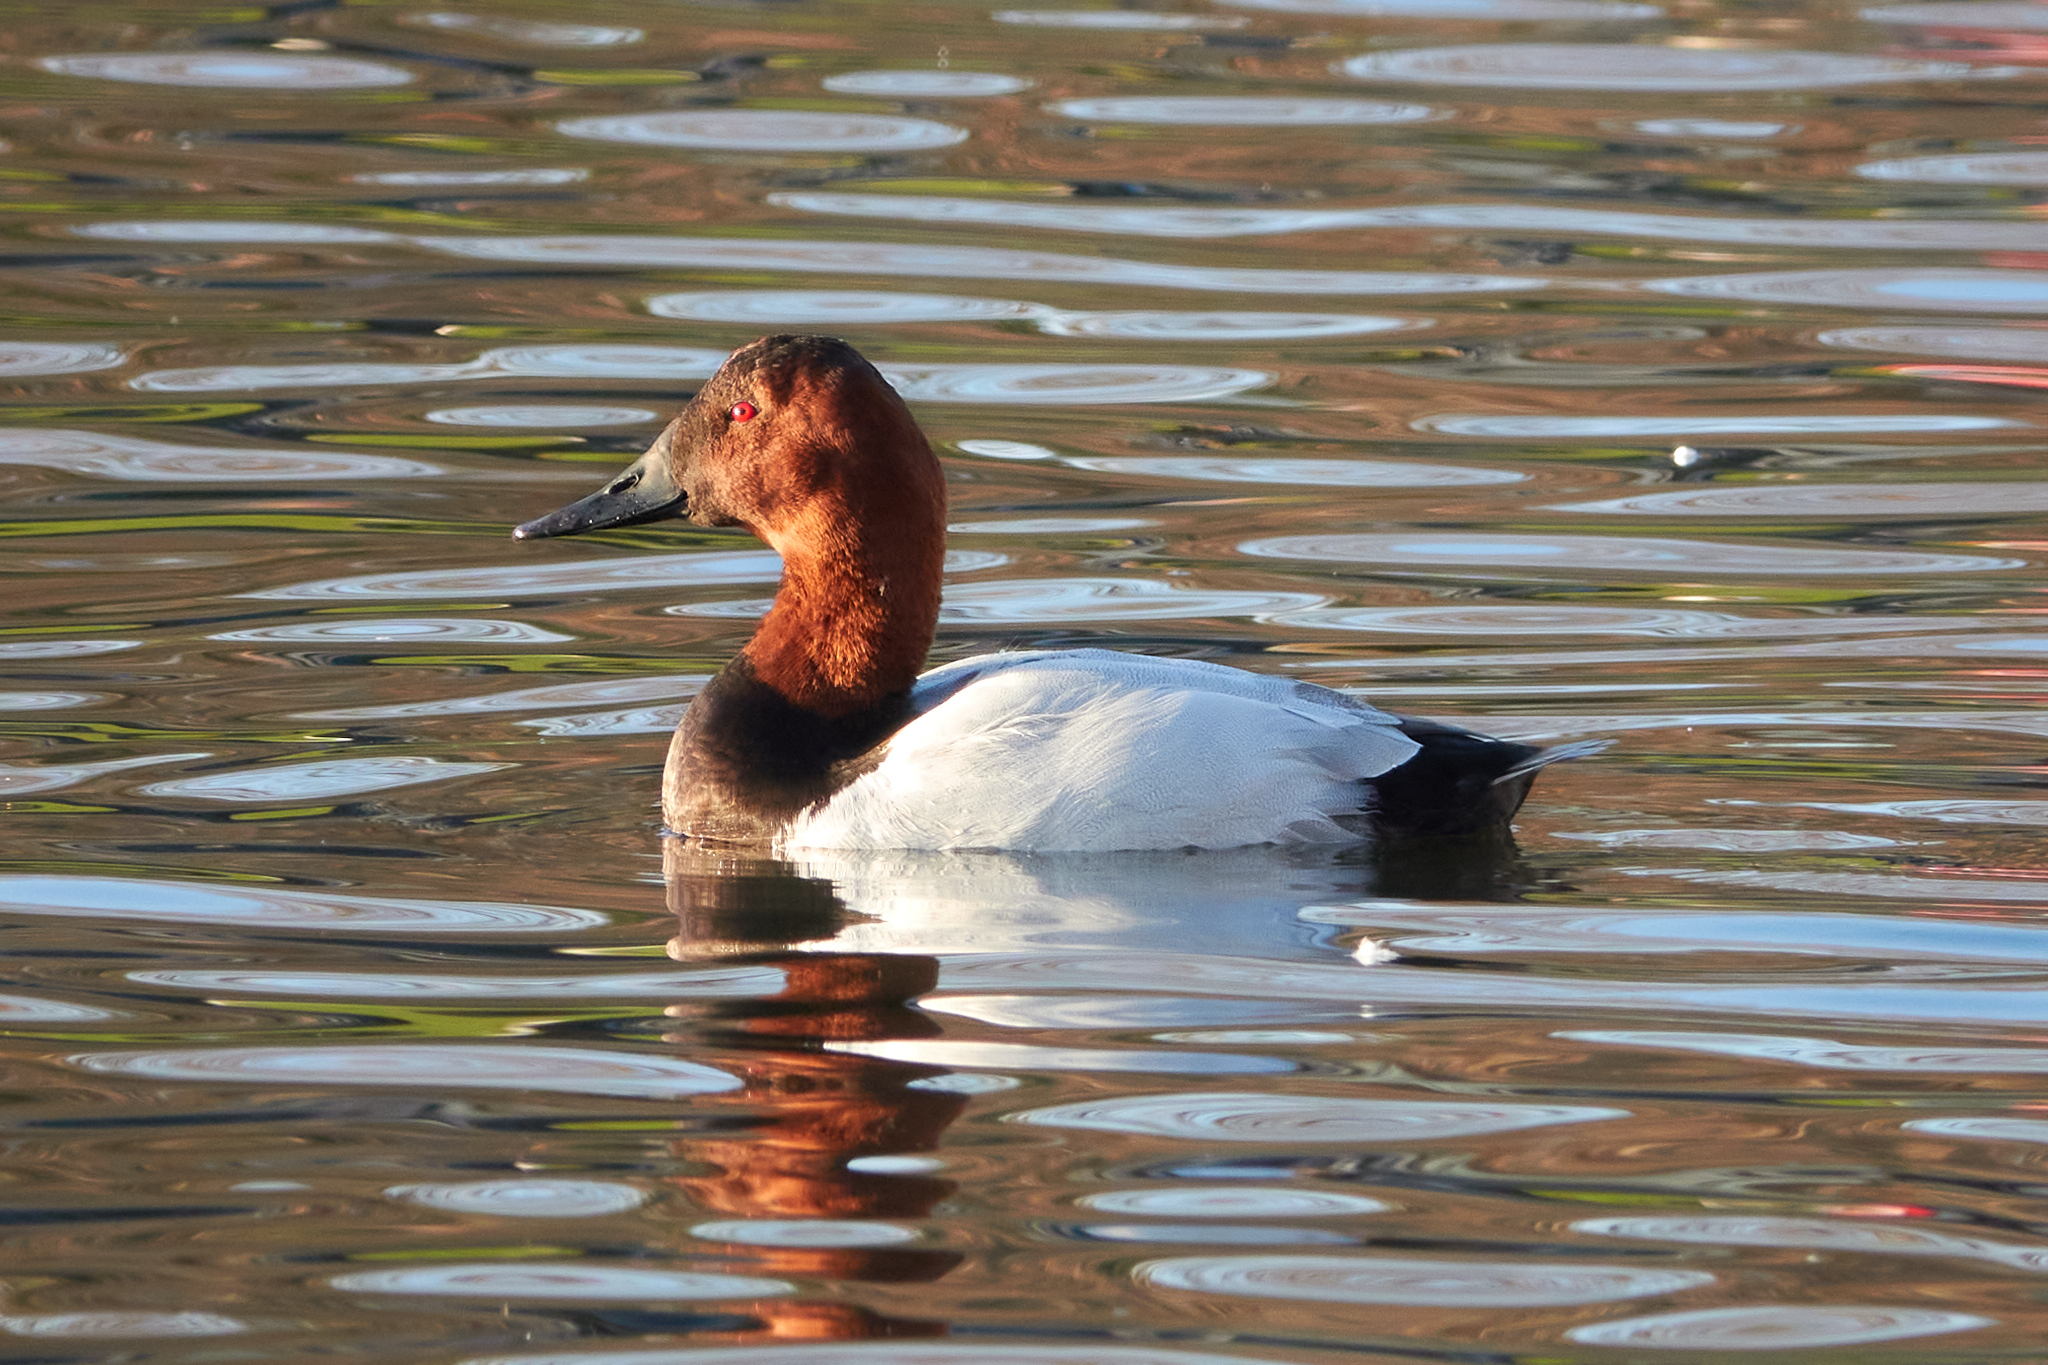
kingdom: Animalia
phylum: Chordata
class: Aves
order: Anseriformes
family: Anatidae
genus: Aythya
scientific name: Aythya valisineria
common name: Canvasback
